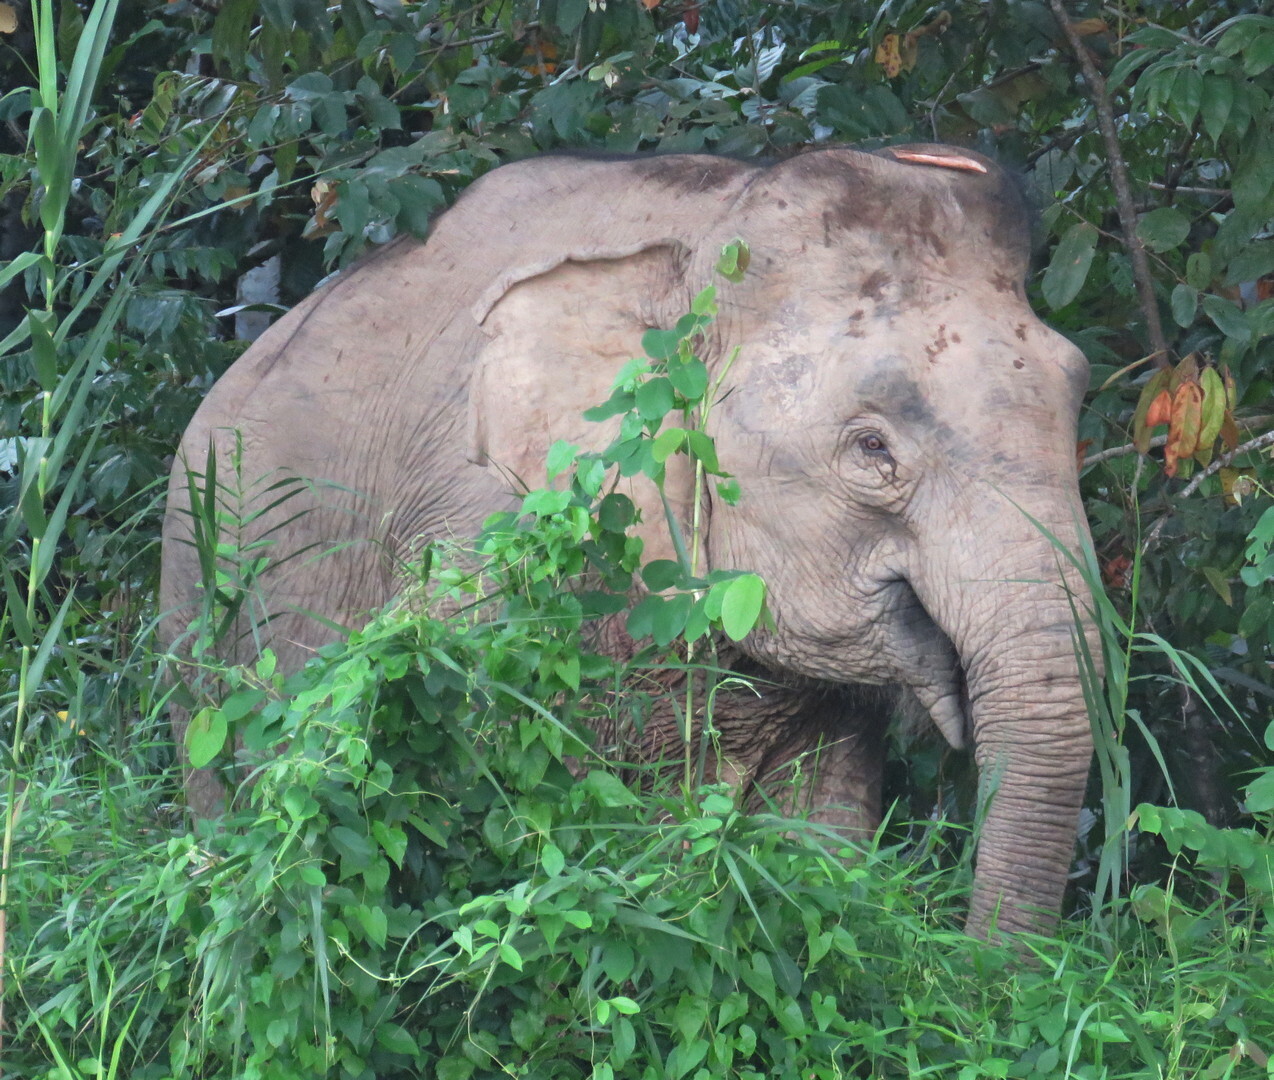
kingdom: Animalia
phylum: Chordata
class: Mammalia
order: Proboscidea
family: Elephantidae
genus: Elephas
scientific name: Elephas maximus
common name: Asian elephant
